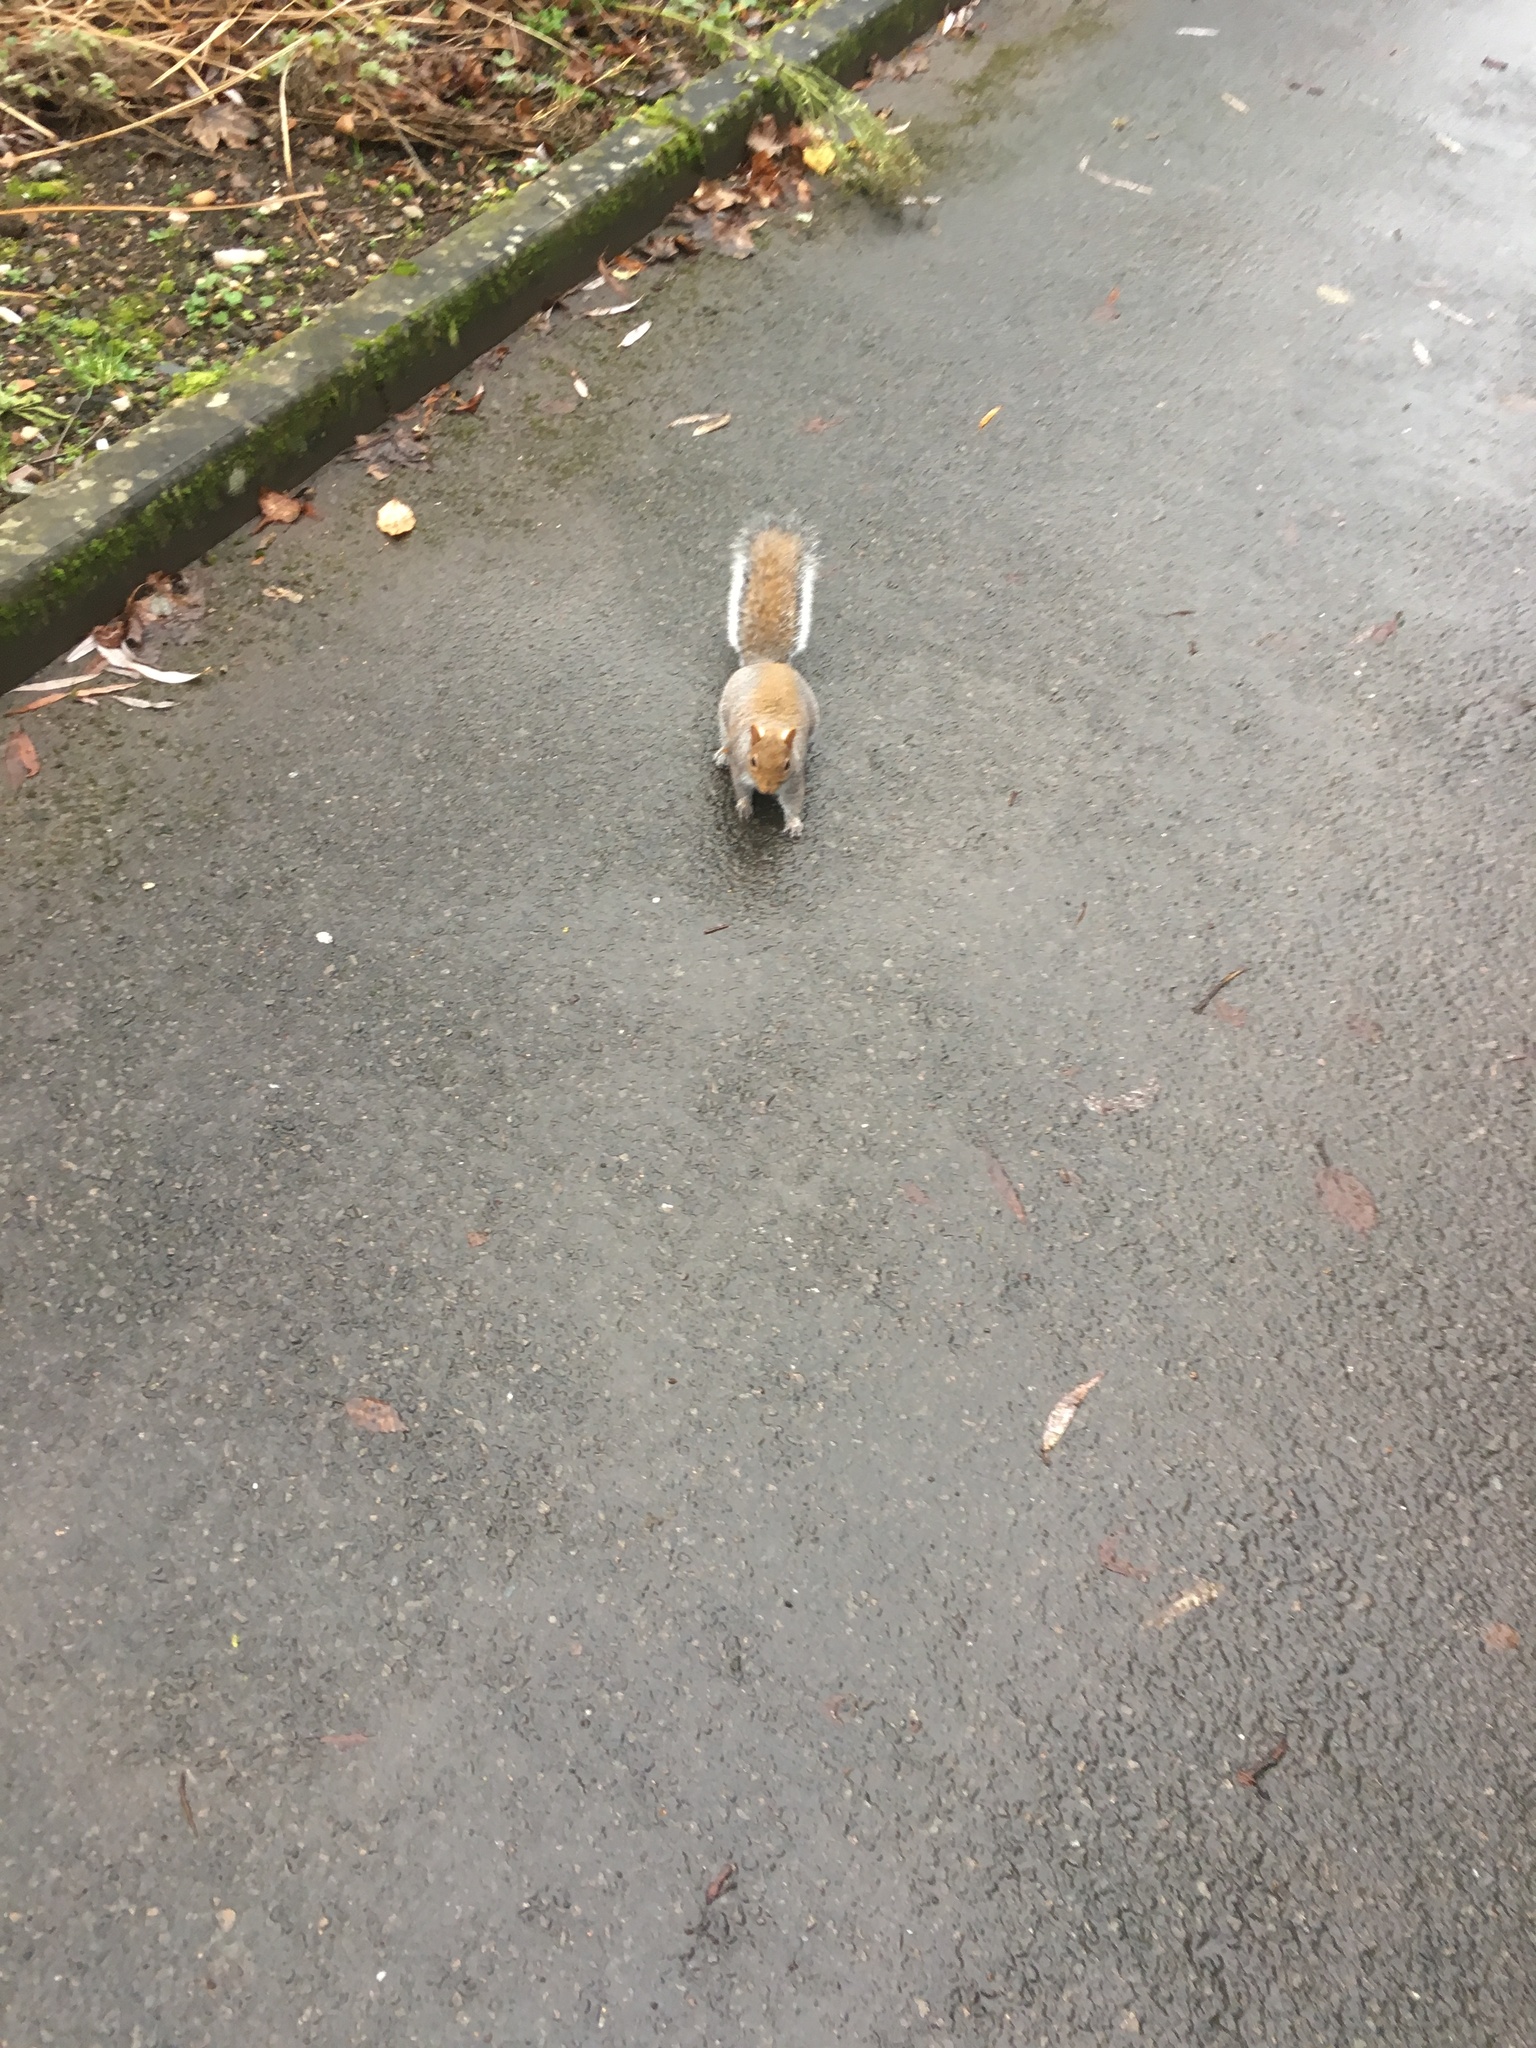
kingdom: Animalia
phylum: Chordata
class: Mammalia
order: Rodentia
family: Sciuridae
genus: Sciurus
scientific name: Sciurus carolinensis
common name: Eastern gray squirrel
